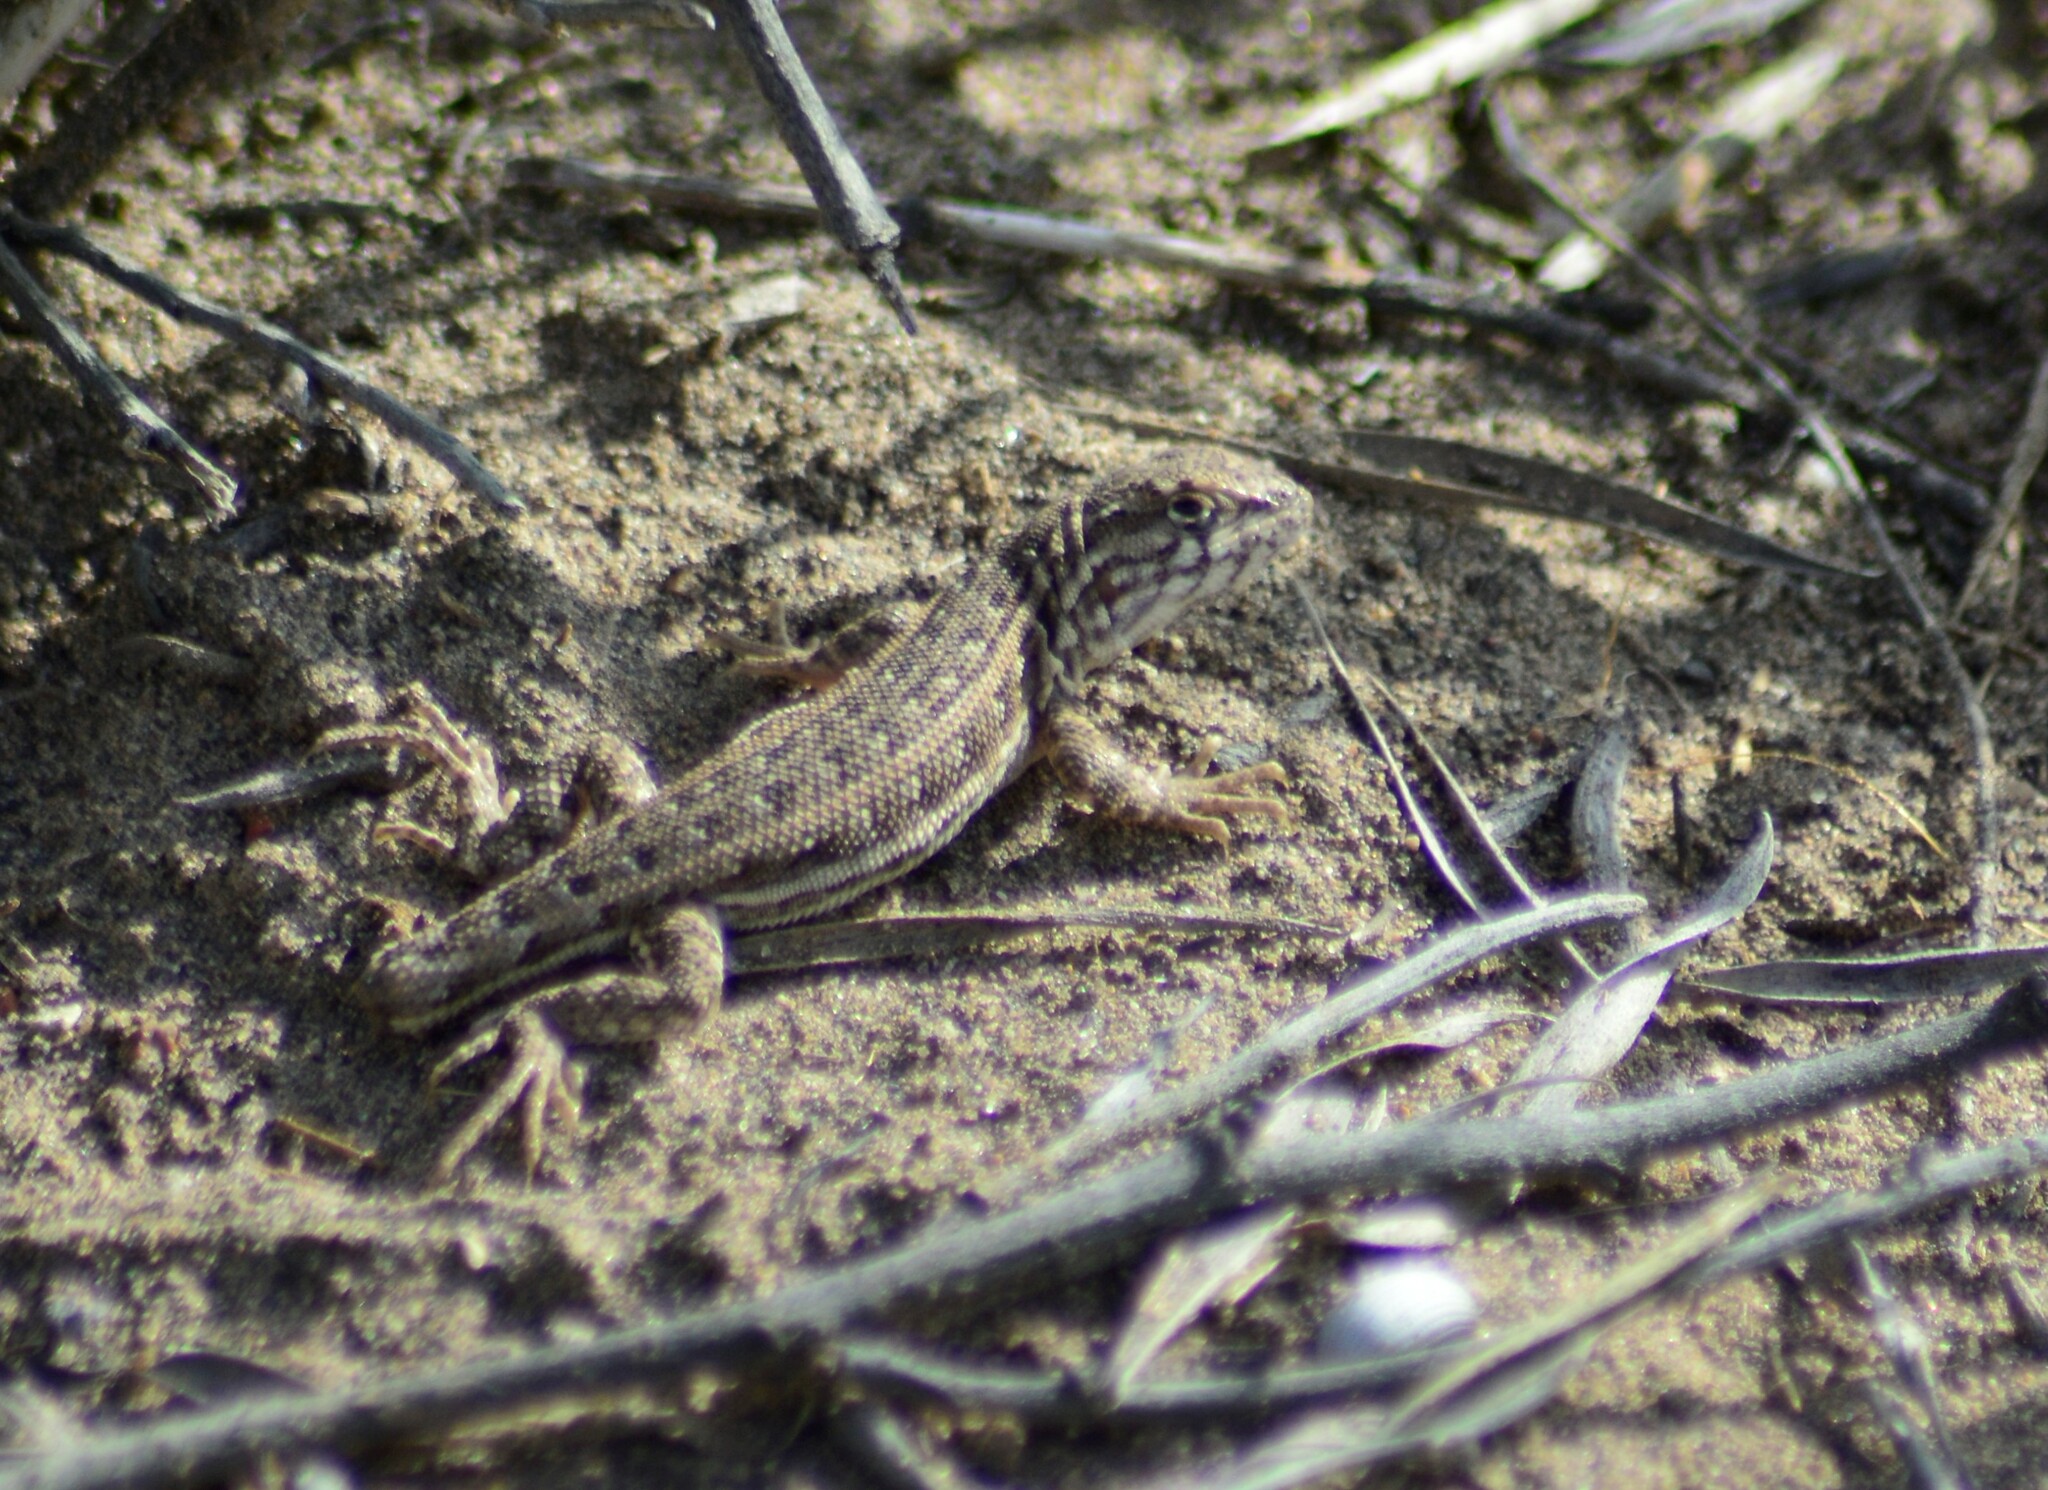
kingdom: Animalia
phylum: Chordata
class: Squamata
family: Liolaemidae
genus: Liolaemus
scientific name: Liolaemus darwinii
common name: Darwin's tree iguana
